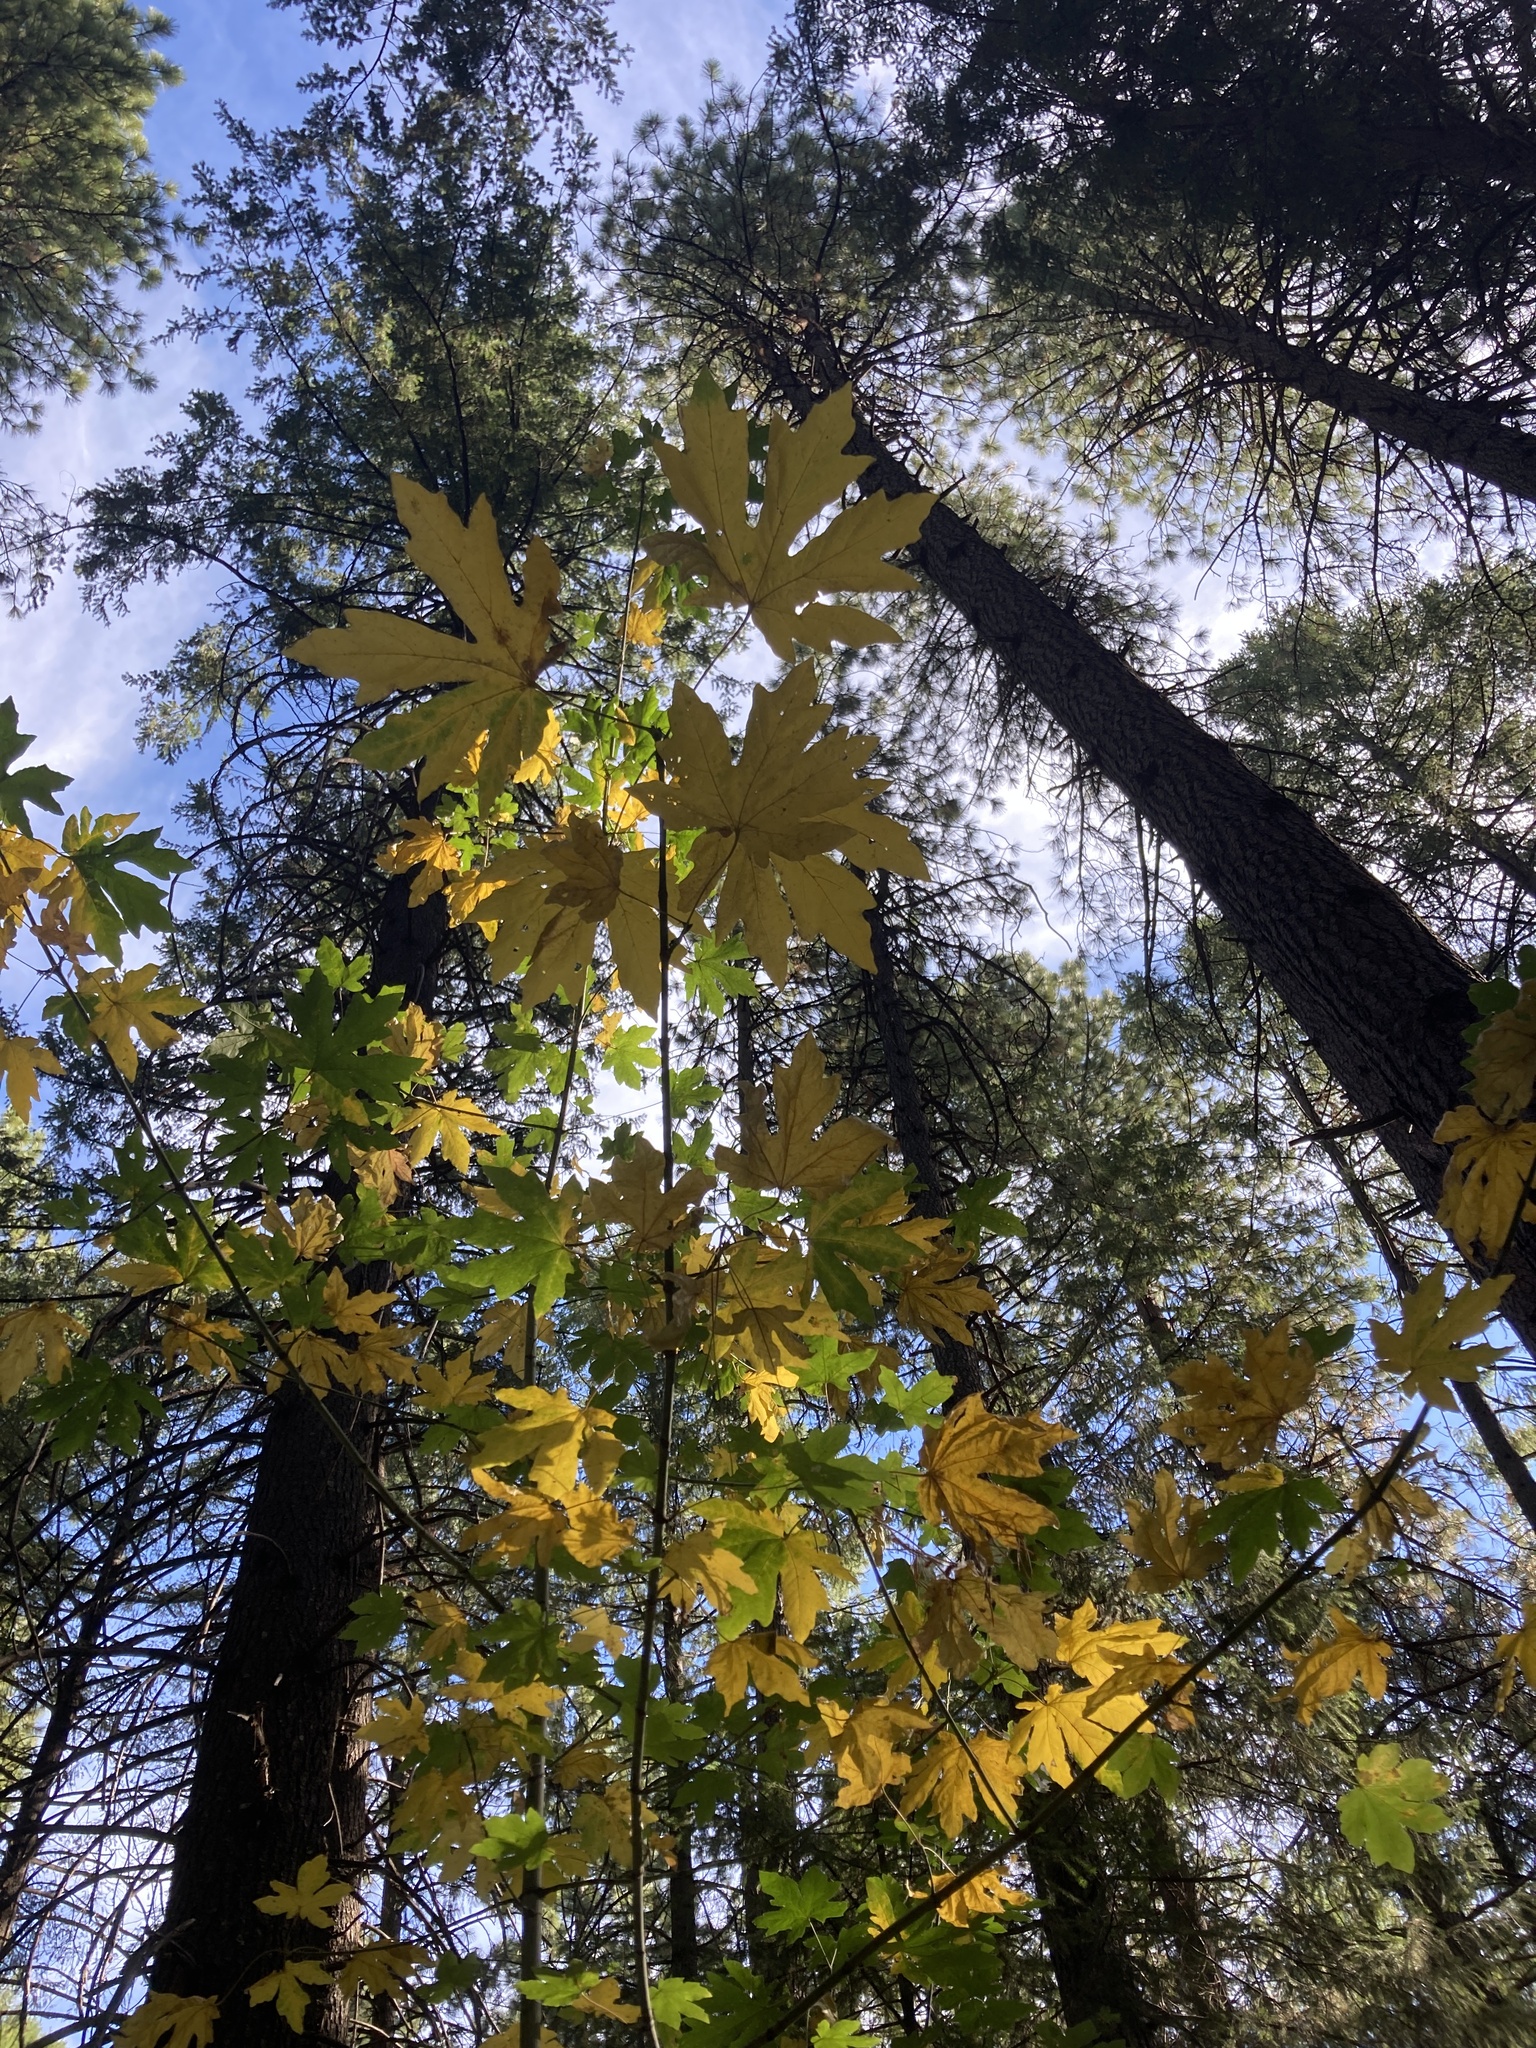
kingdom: Plantae
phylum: Tracheophyta
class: Magnoliopsida
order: Sapindales
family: Sapindaceae
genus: Acer
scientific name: Acer macrophyllum
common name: Oregon maple
